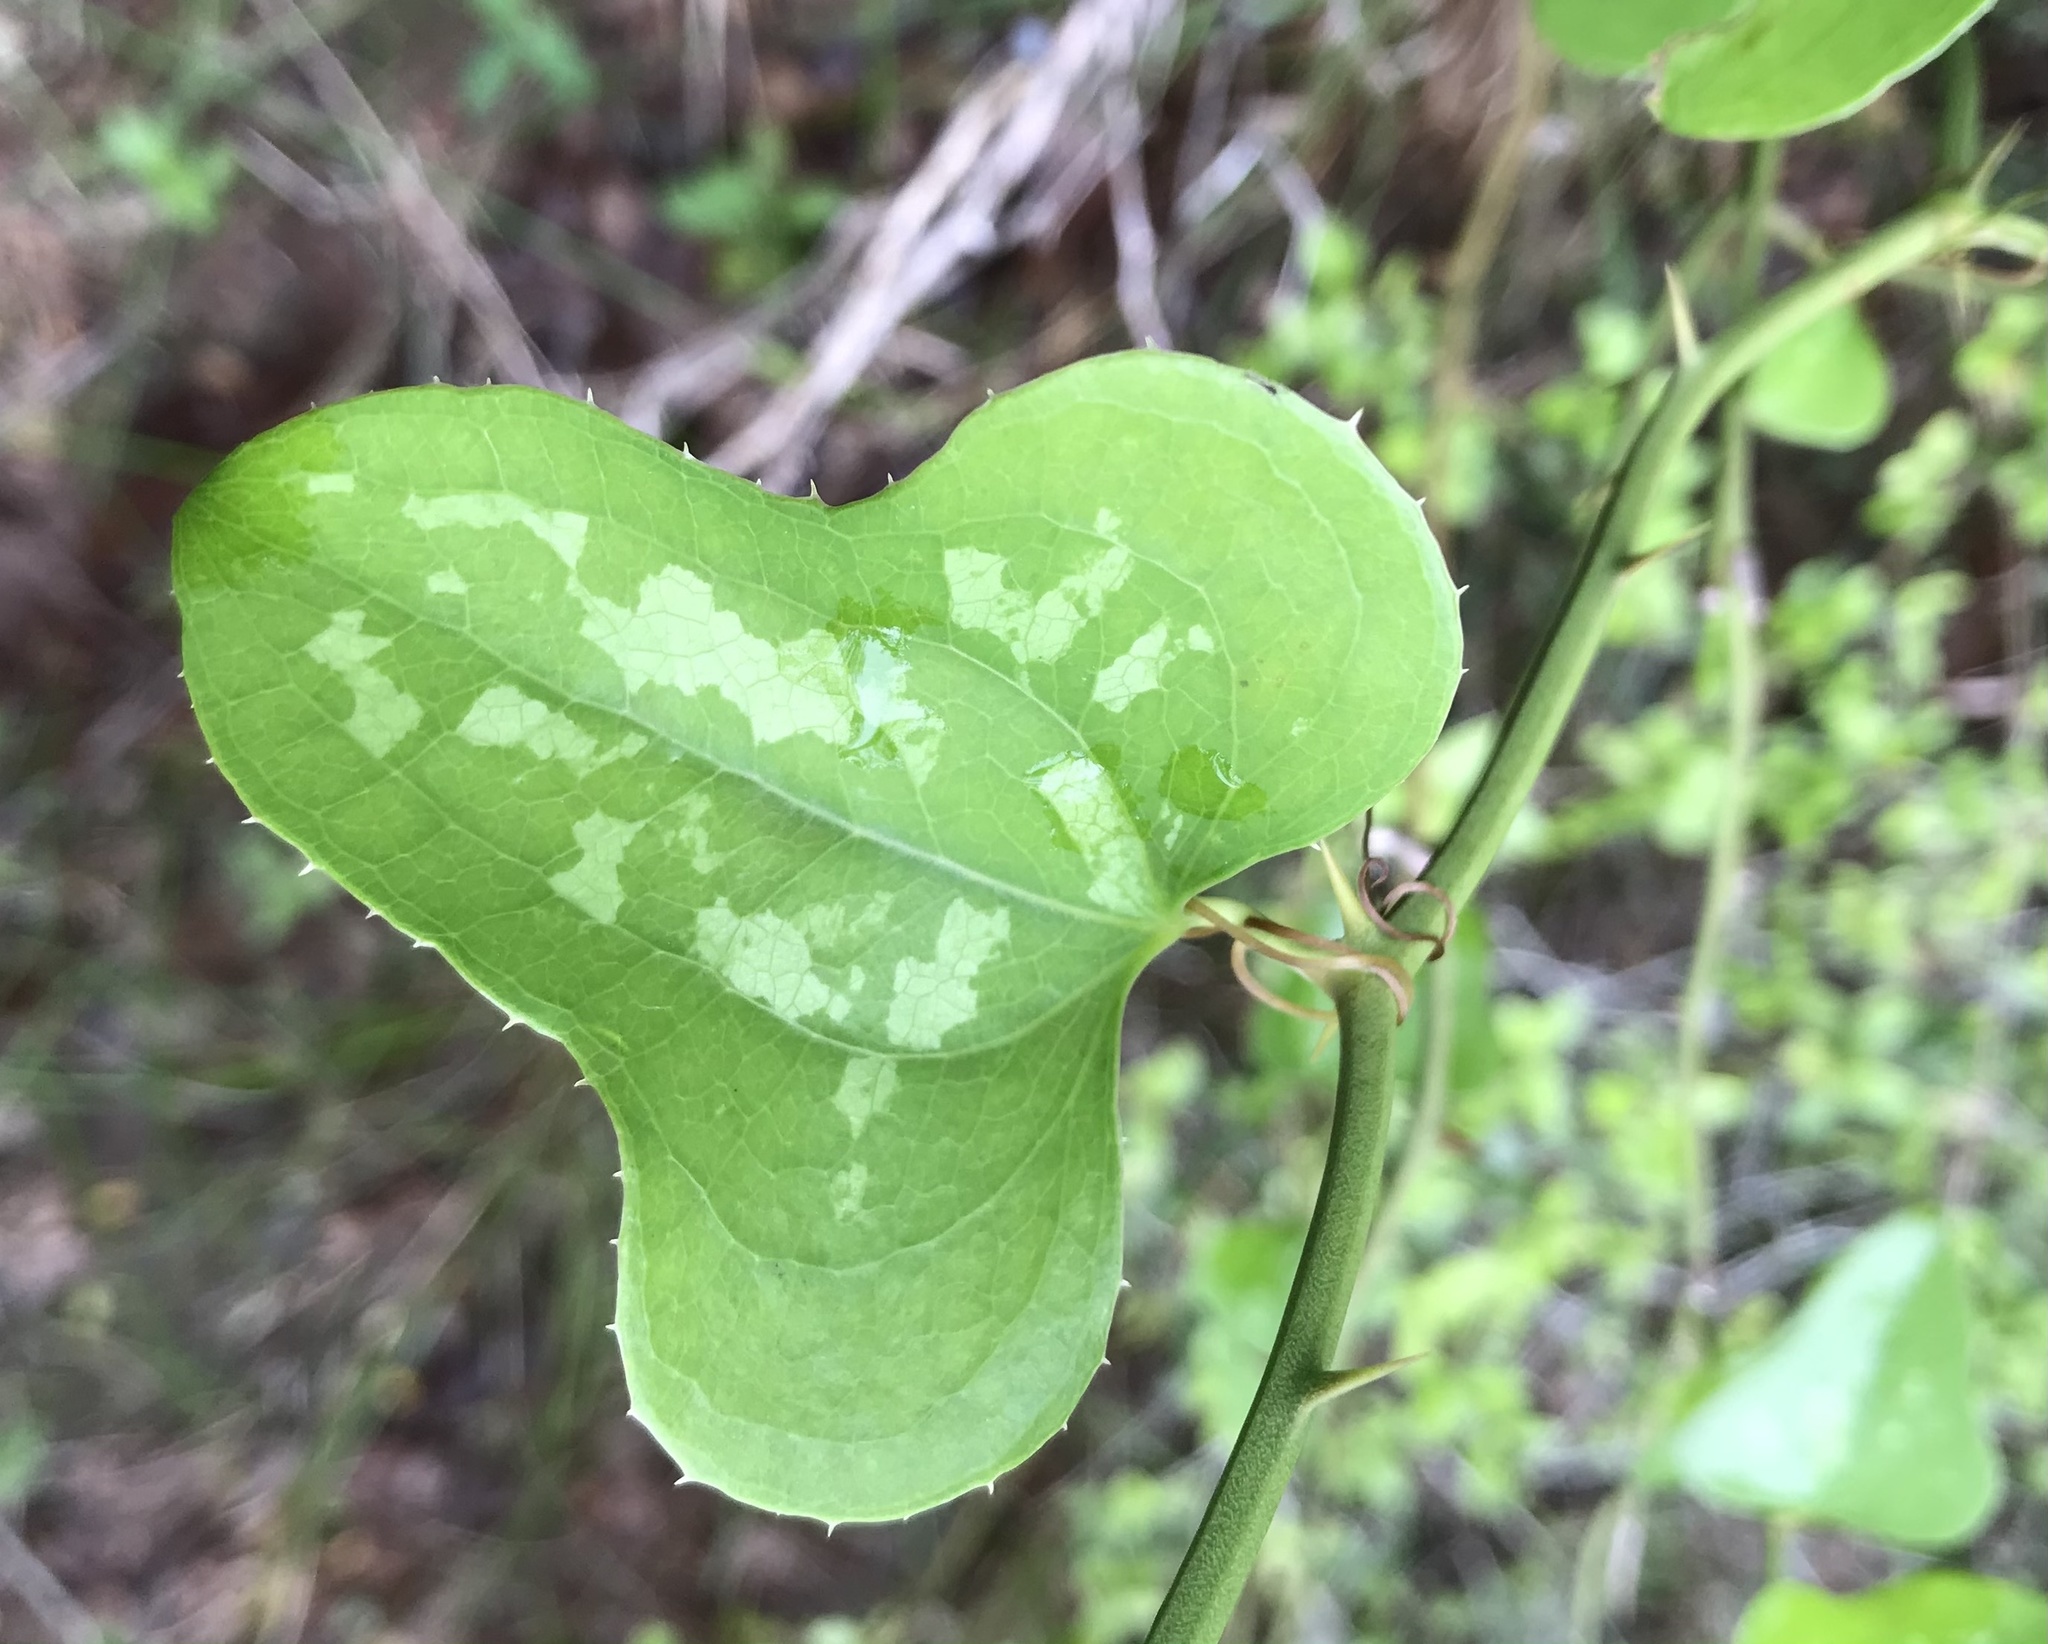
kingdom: Plantae
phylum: Tracheophyta
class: Liliopsida
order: Liliales
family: Smilacaceae
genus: Smilax
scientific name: Smilax bona-nox
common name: Catbrier
